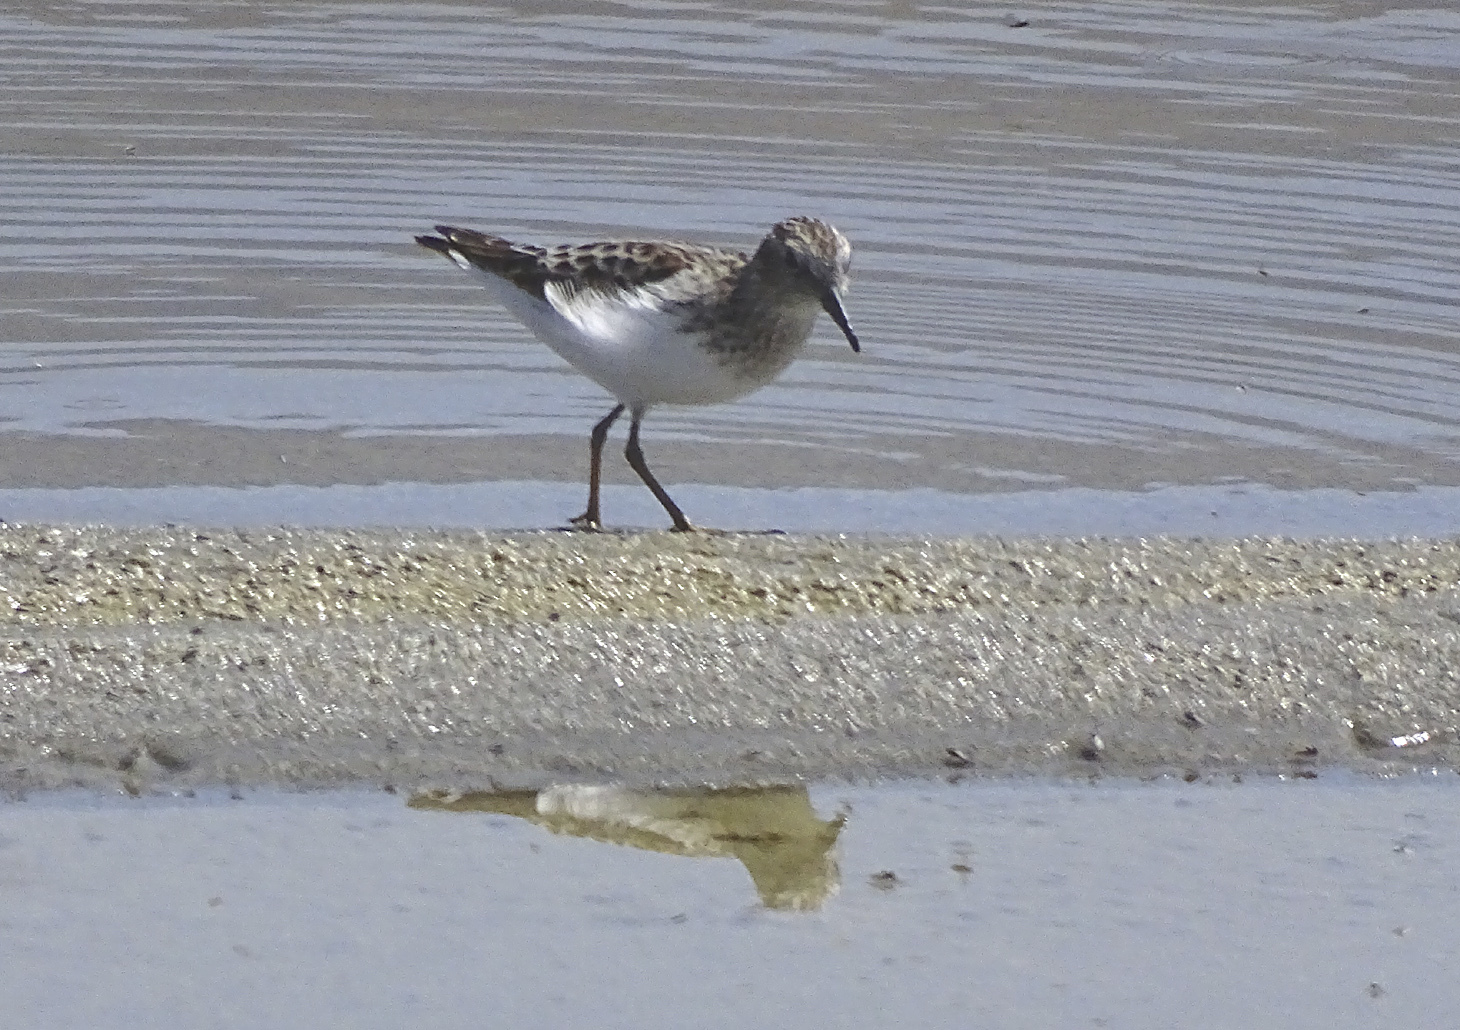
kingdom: Animalia
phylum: Chordata
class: Aves
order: Charadriiformes
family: Scolopacidae
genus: Calidris
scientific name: Calidris minutilla
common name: Least sandpiper
